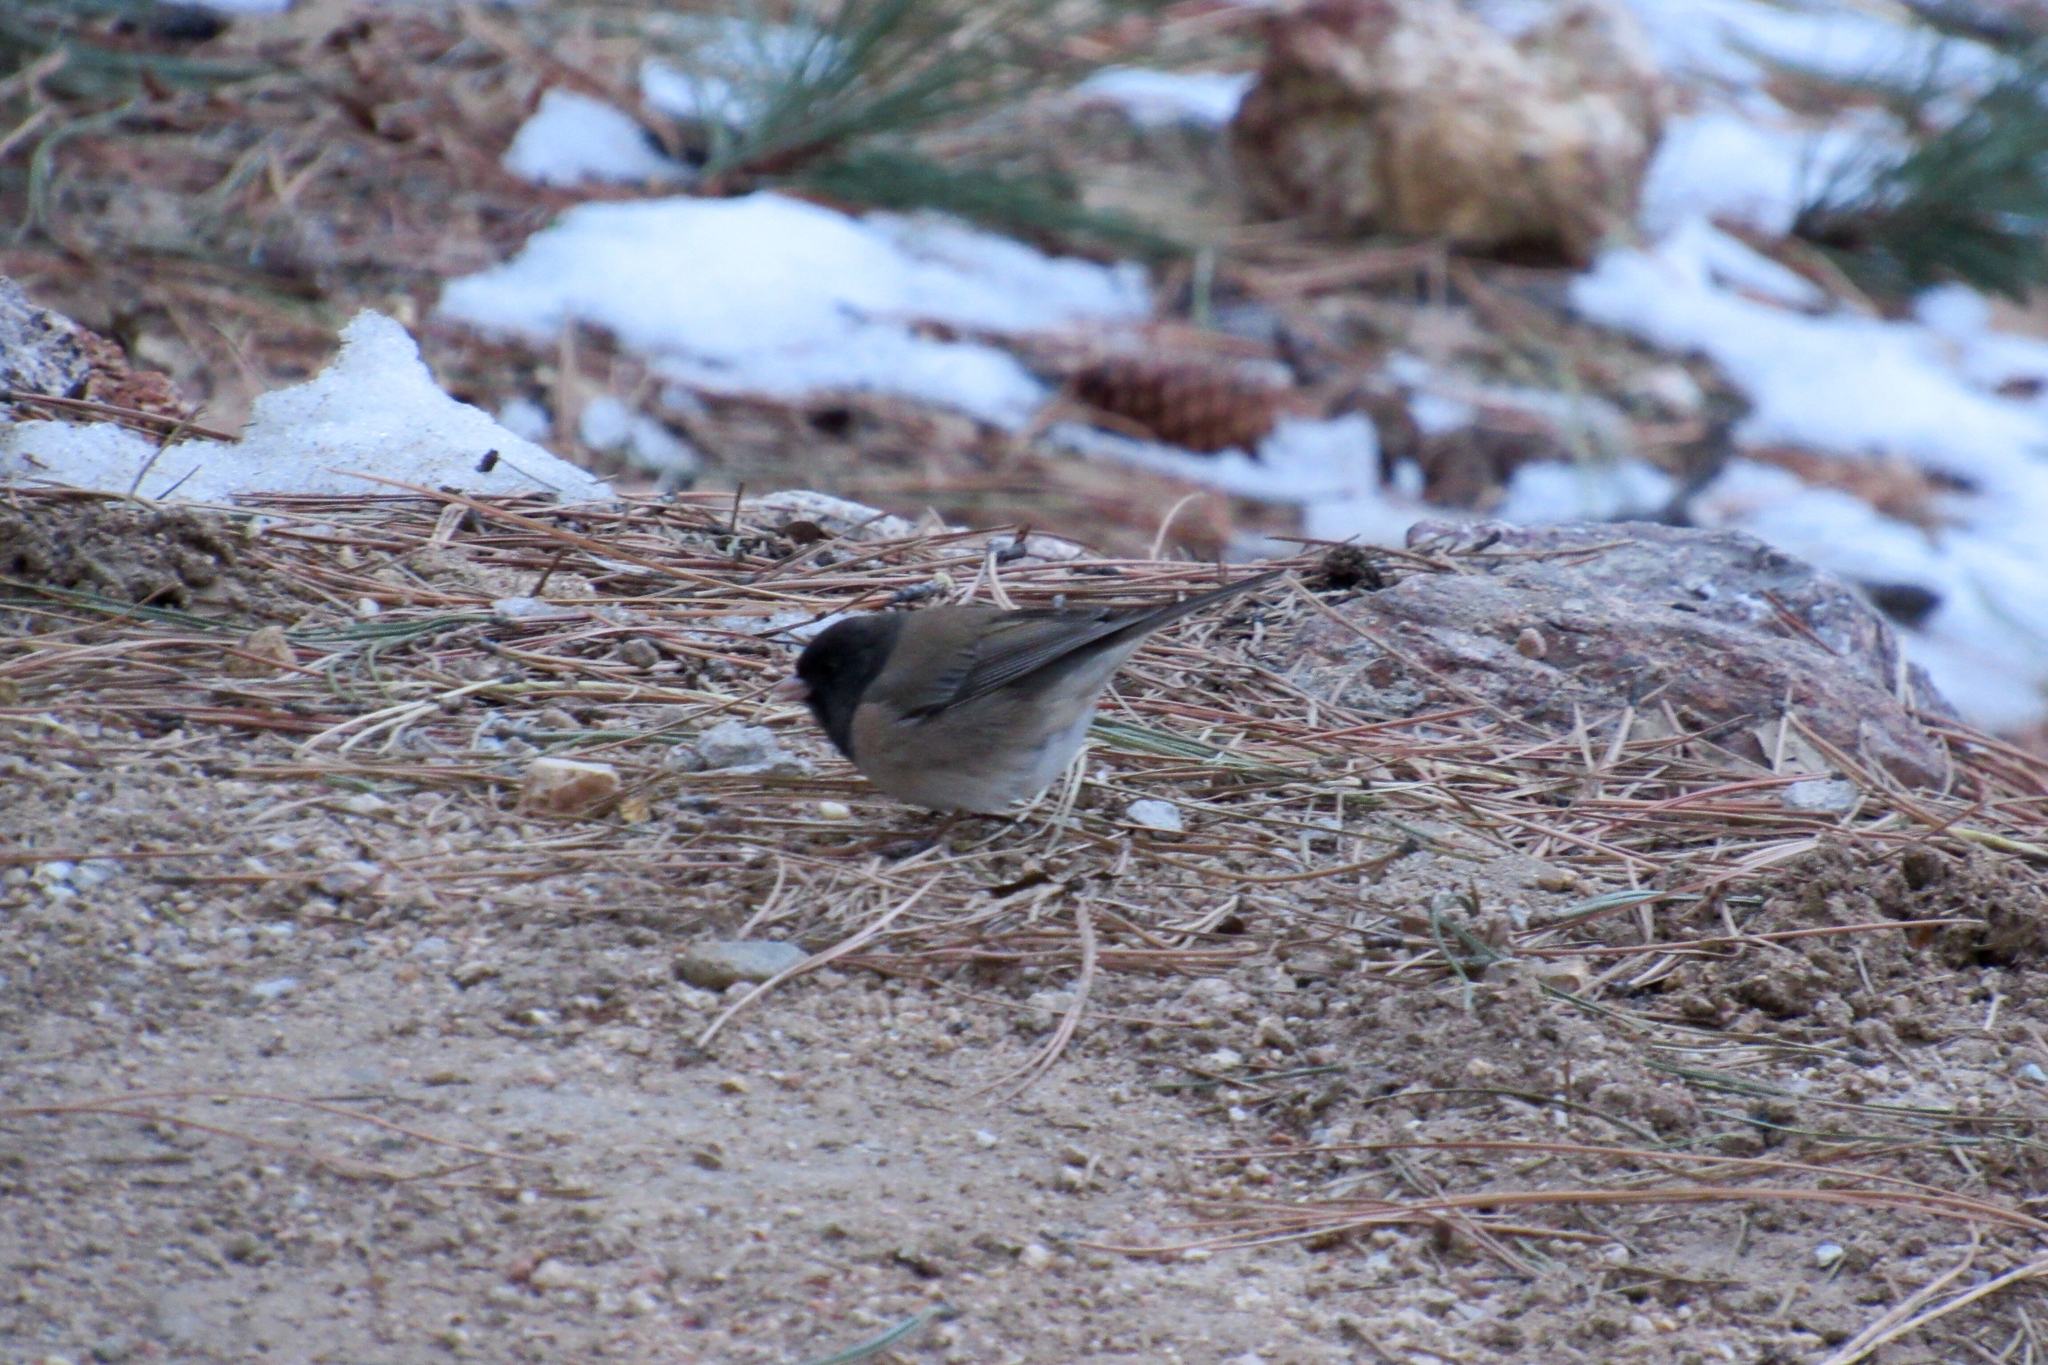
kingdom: Animalia
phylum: Chordata
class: Aves
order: Passeriformes
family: Passerellidae
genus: Junco
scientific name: Junco hyemalis
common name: Dark-eyed junco
